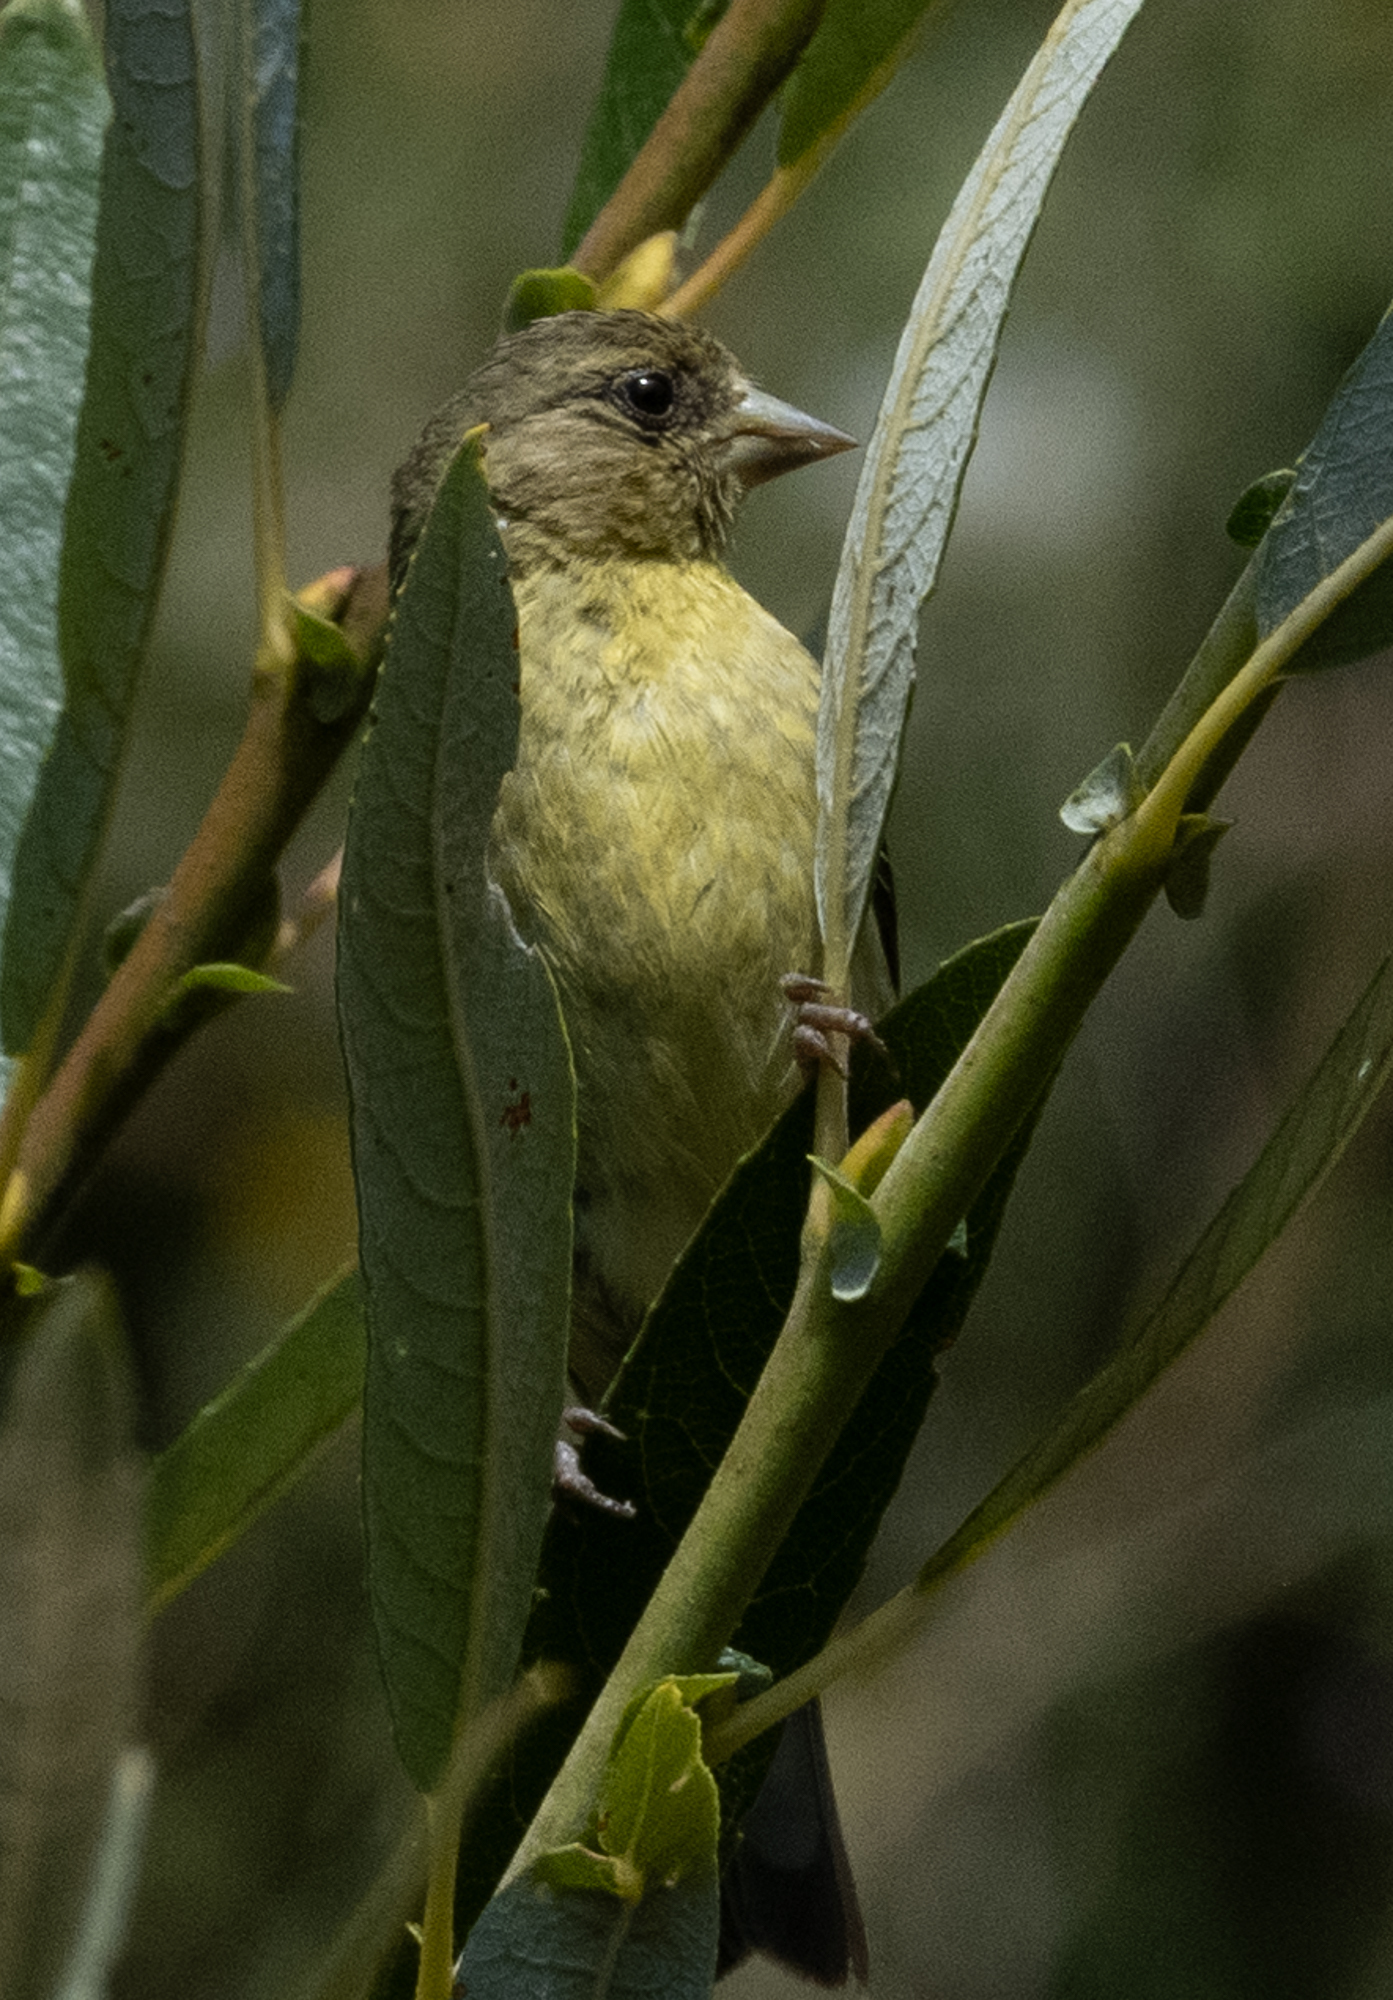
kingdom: Animalia
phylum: Chordata
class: Aves
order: Passeriformes
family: Fringillidae
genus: Spinus
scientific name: Spinus psaltria
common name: Lesser goldfinch
